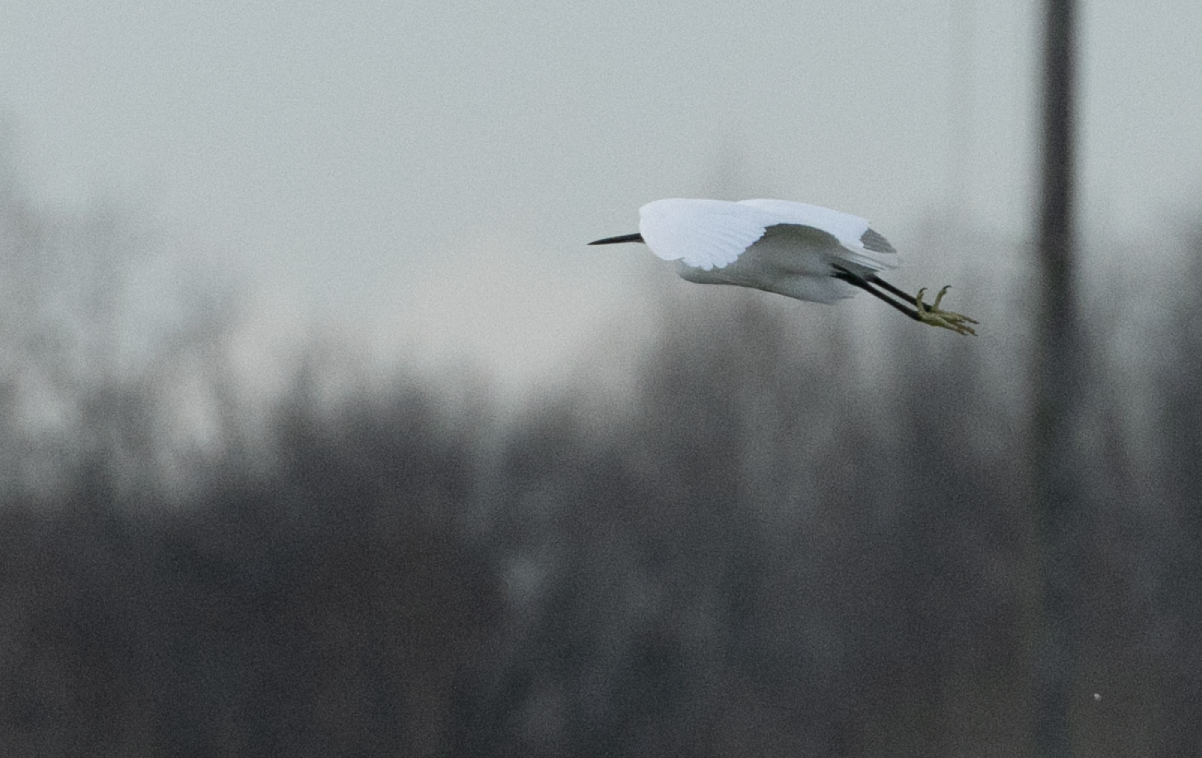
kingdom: Animalia
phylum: Chordata
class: Aves
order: Pelecaniformes
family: Ardeidae
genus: Egretta
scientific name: Egretta garzetta
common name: Little egret
